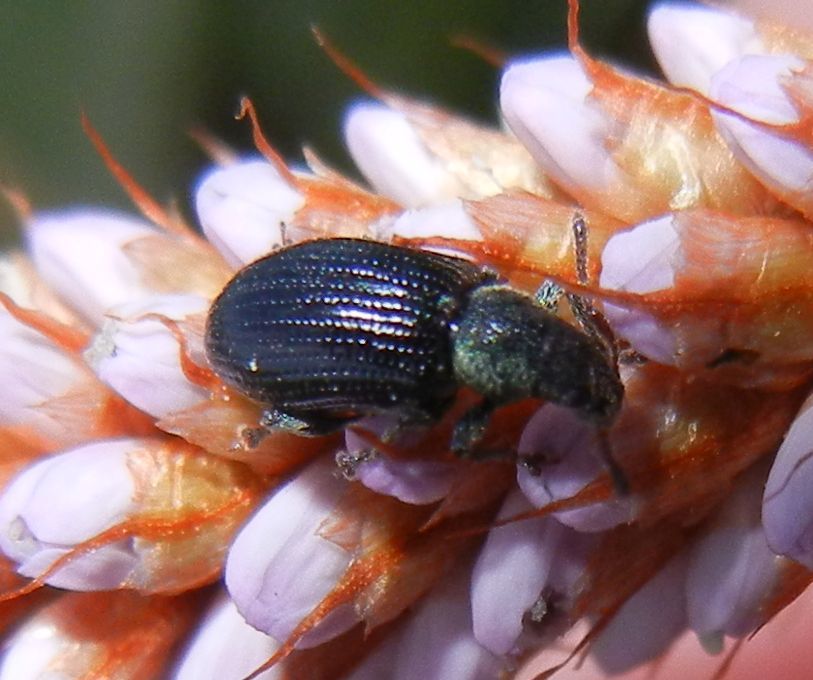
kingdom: Animalia
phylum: Arthropoda
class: Insecta
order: Coleoptera
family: Curculionidae
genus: Phyllobius
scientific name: Phyllobius viridicollis
